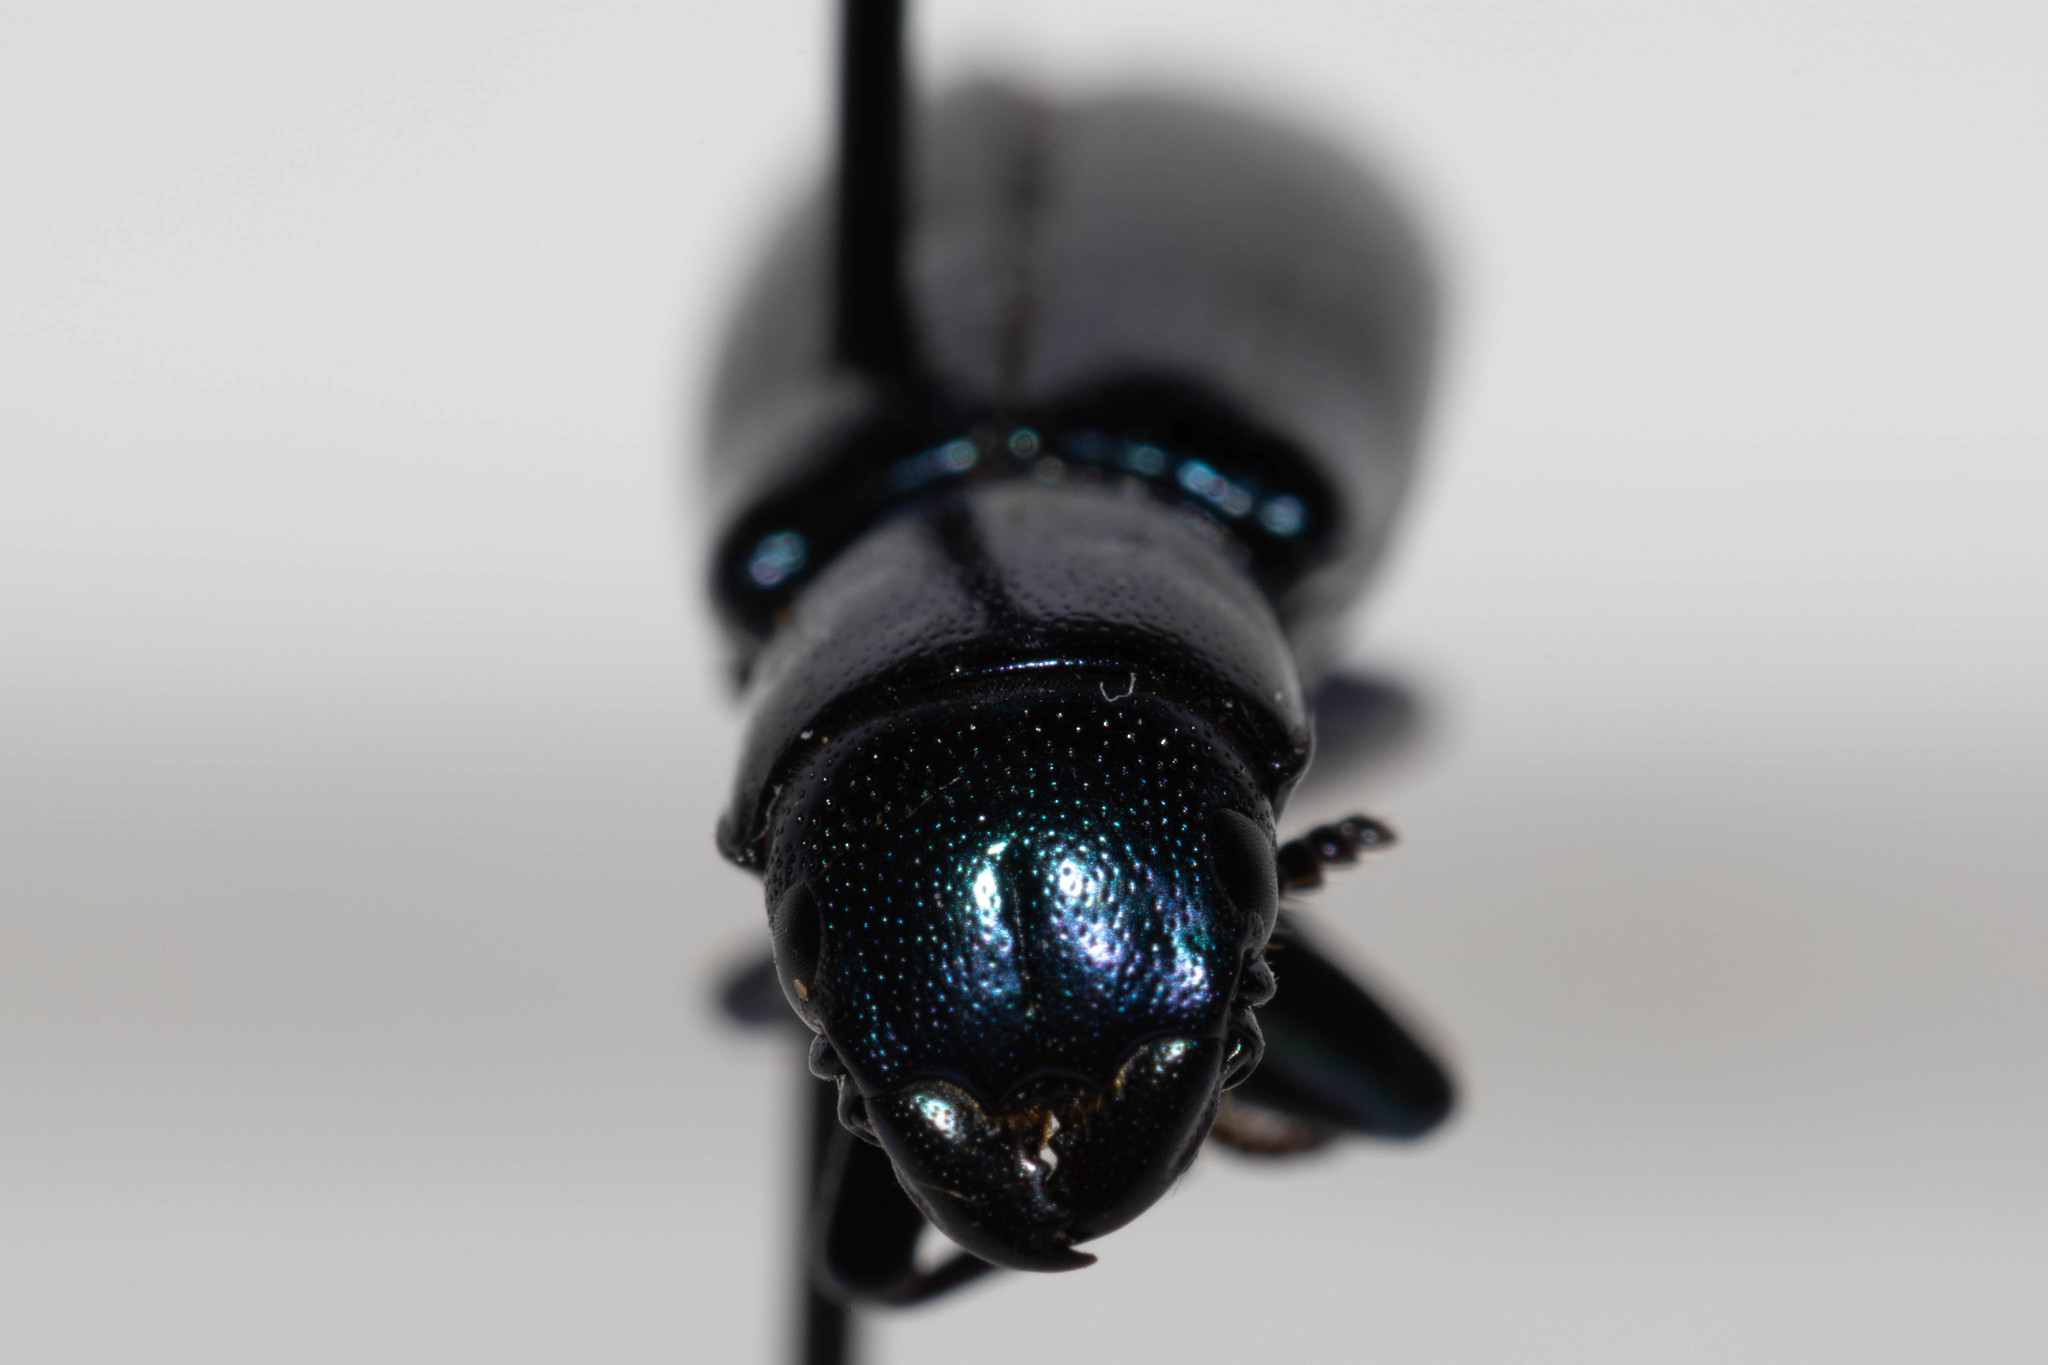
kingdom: Animalia
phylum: Arthropoda
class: Insecta
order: Coleoptera
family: Trogossitidae
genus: Temnoscheila
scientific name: Temnoscheila chlorodia
